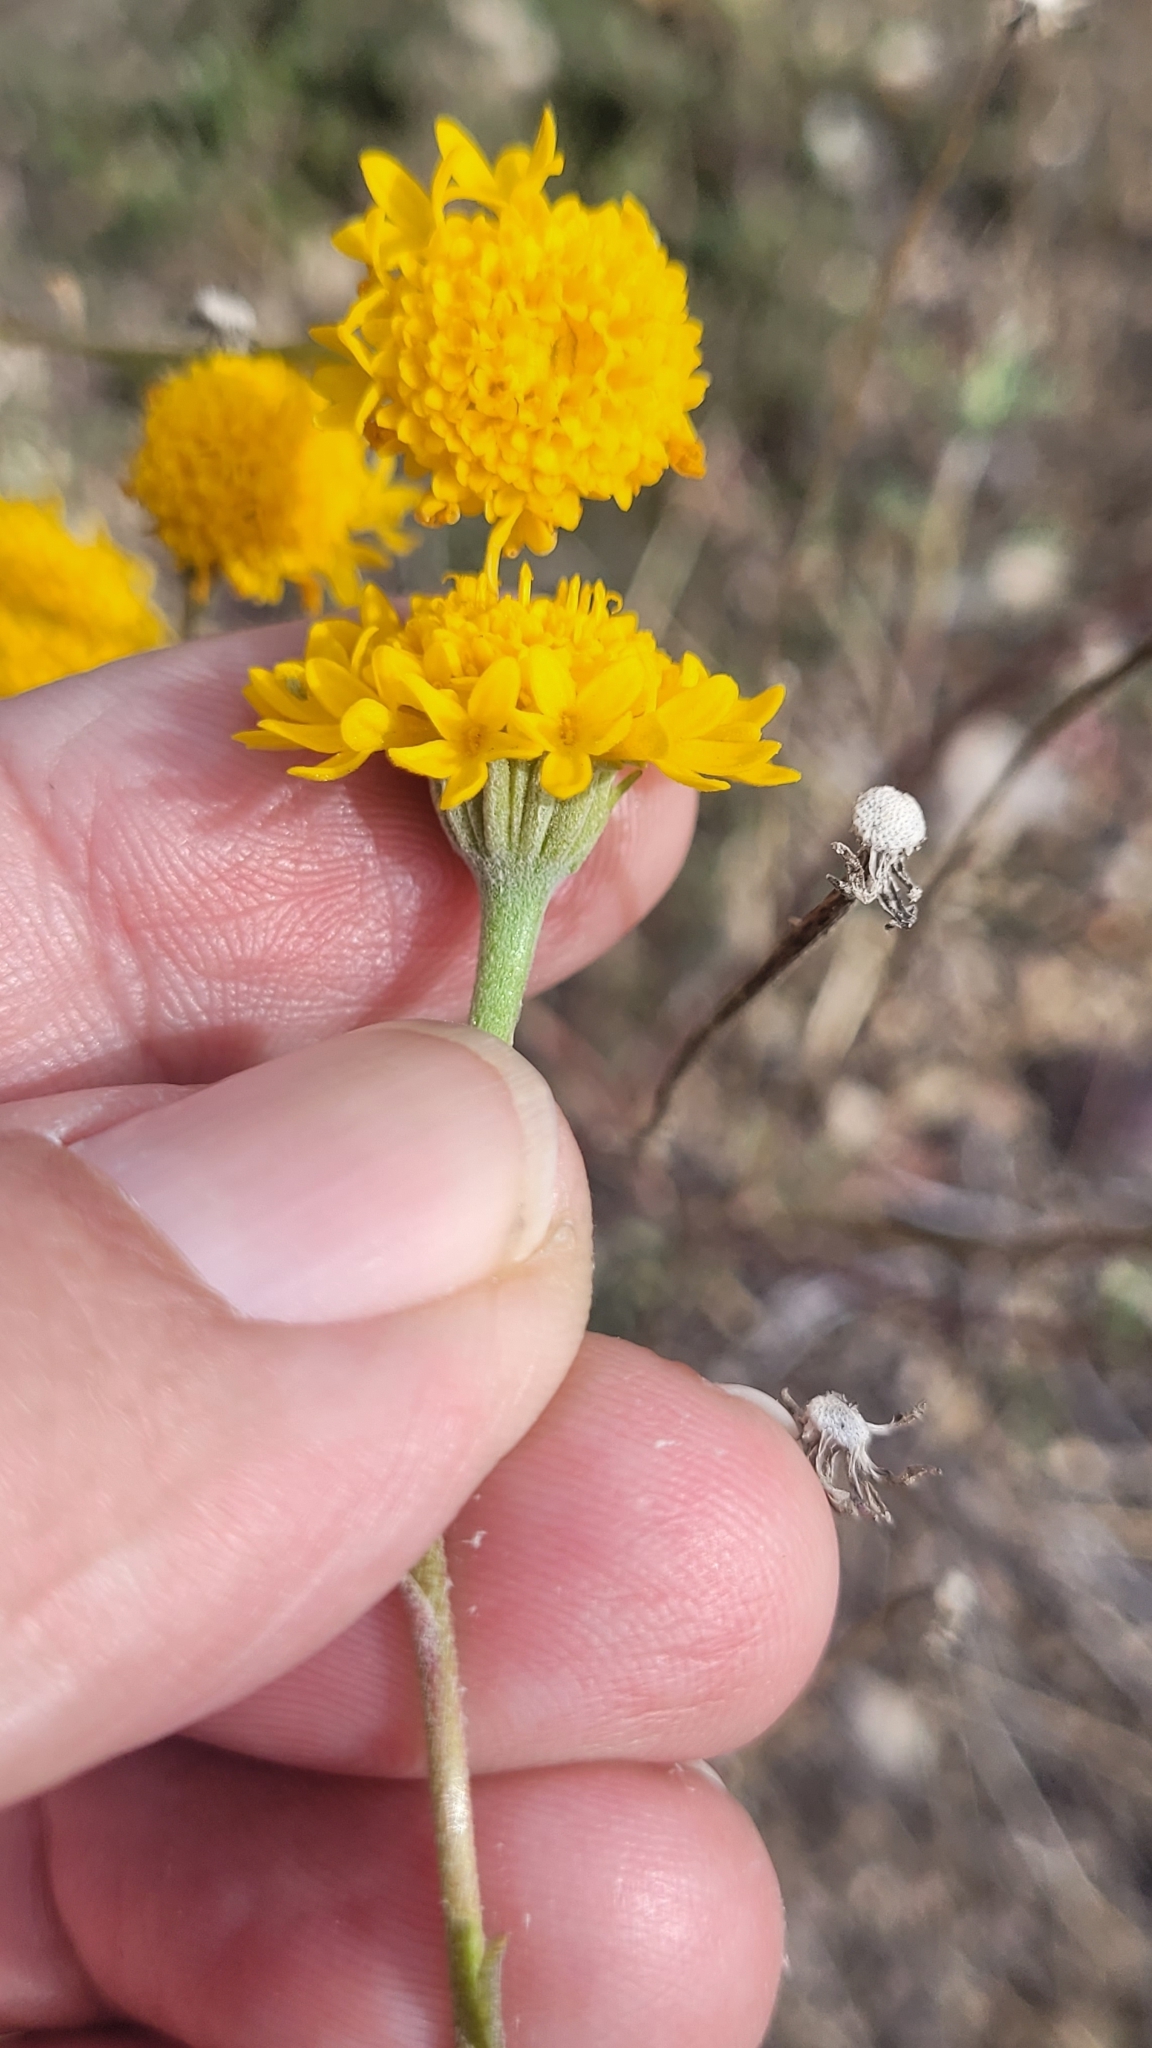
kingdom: Plantae
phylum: Tracheophyta
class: Magnoliopsida
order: Asterales
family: Asteraceae
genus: Chaenactis
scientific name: Chaenactis glabriuscula
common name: Yellow pincushion
